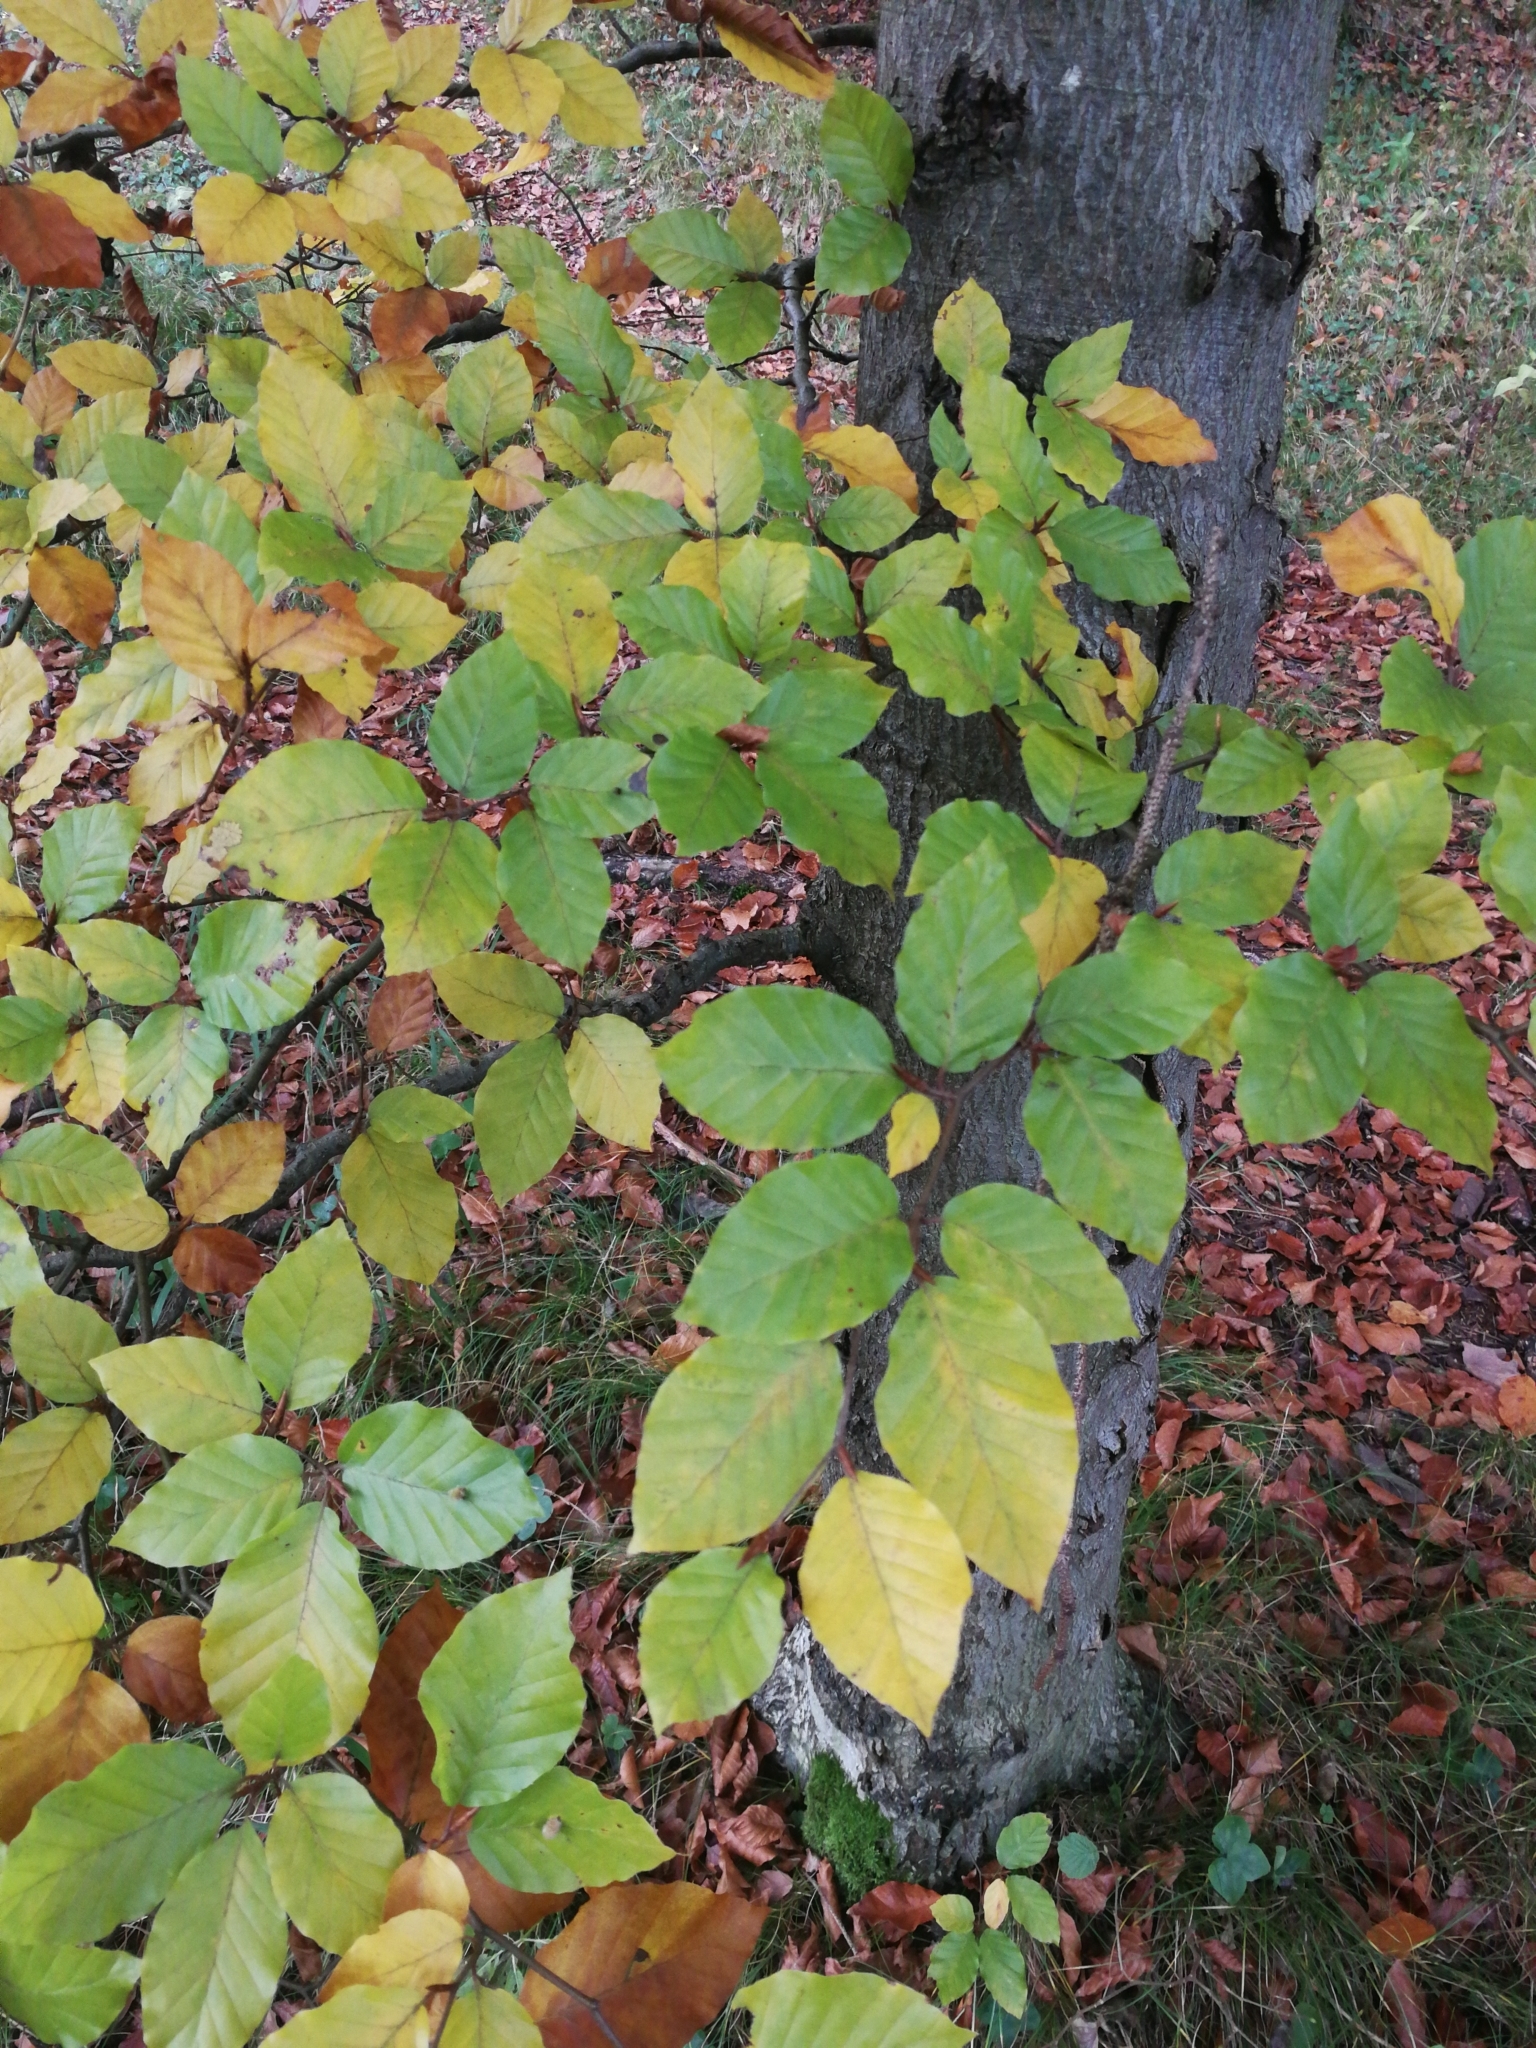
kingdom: Plantae
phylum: Tracheophyta
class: Magnoliopsida
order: Fagales
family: Fagaceae
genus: Fagus
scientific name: Fagus sylvatica
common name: Beech
